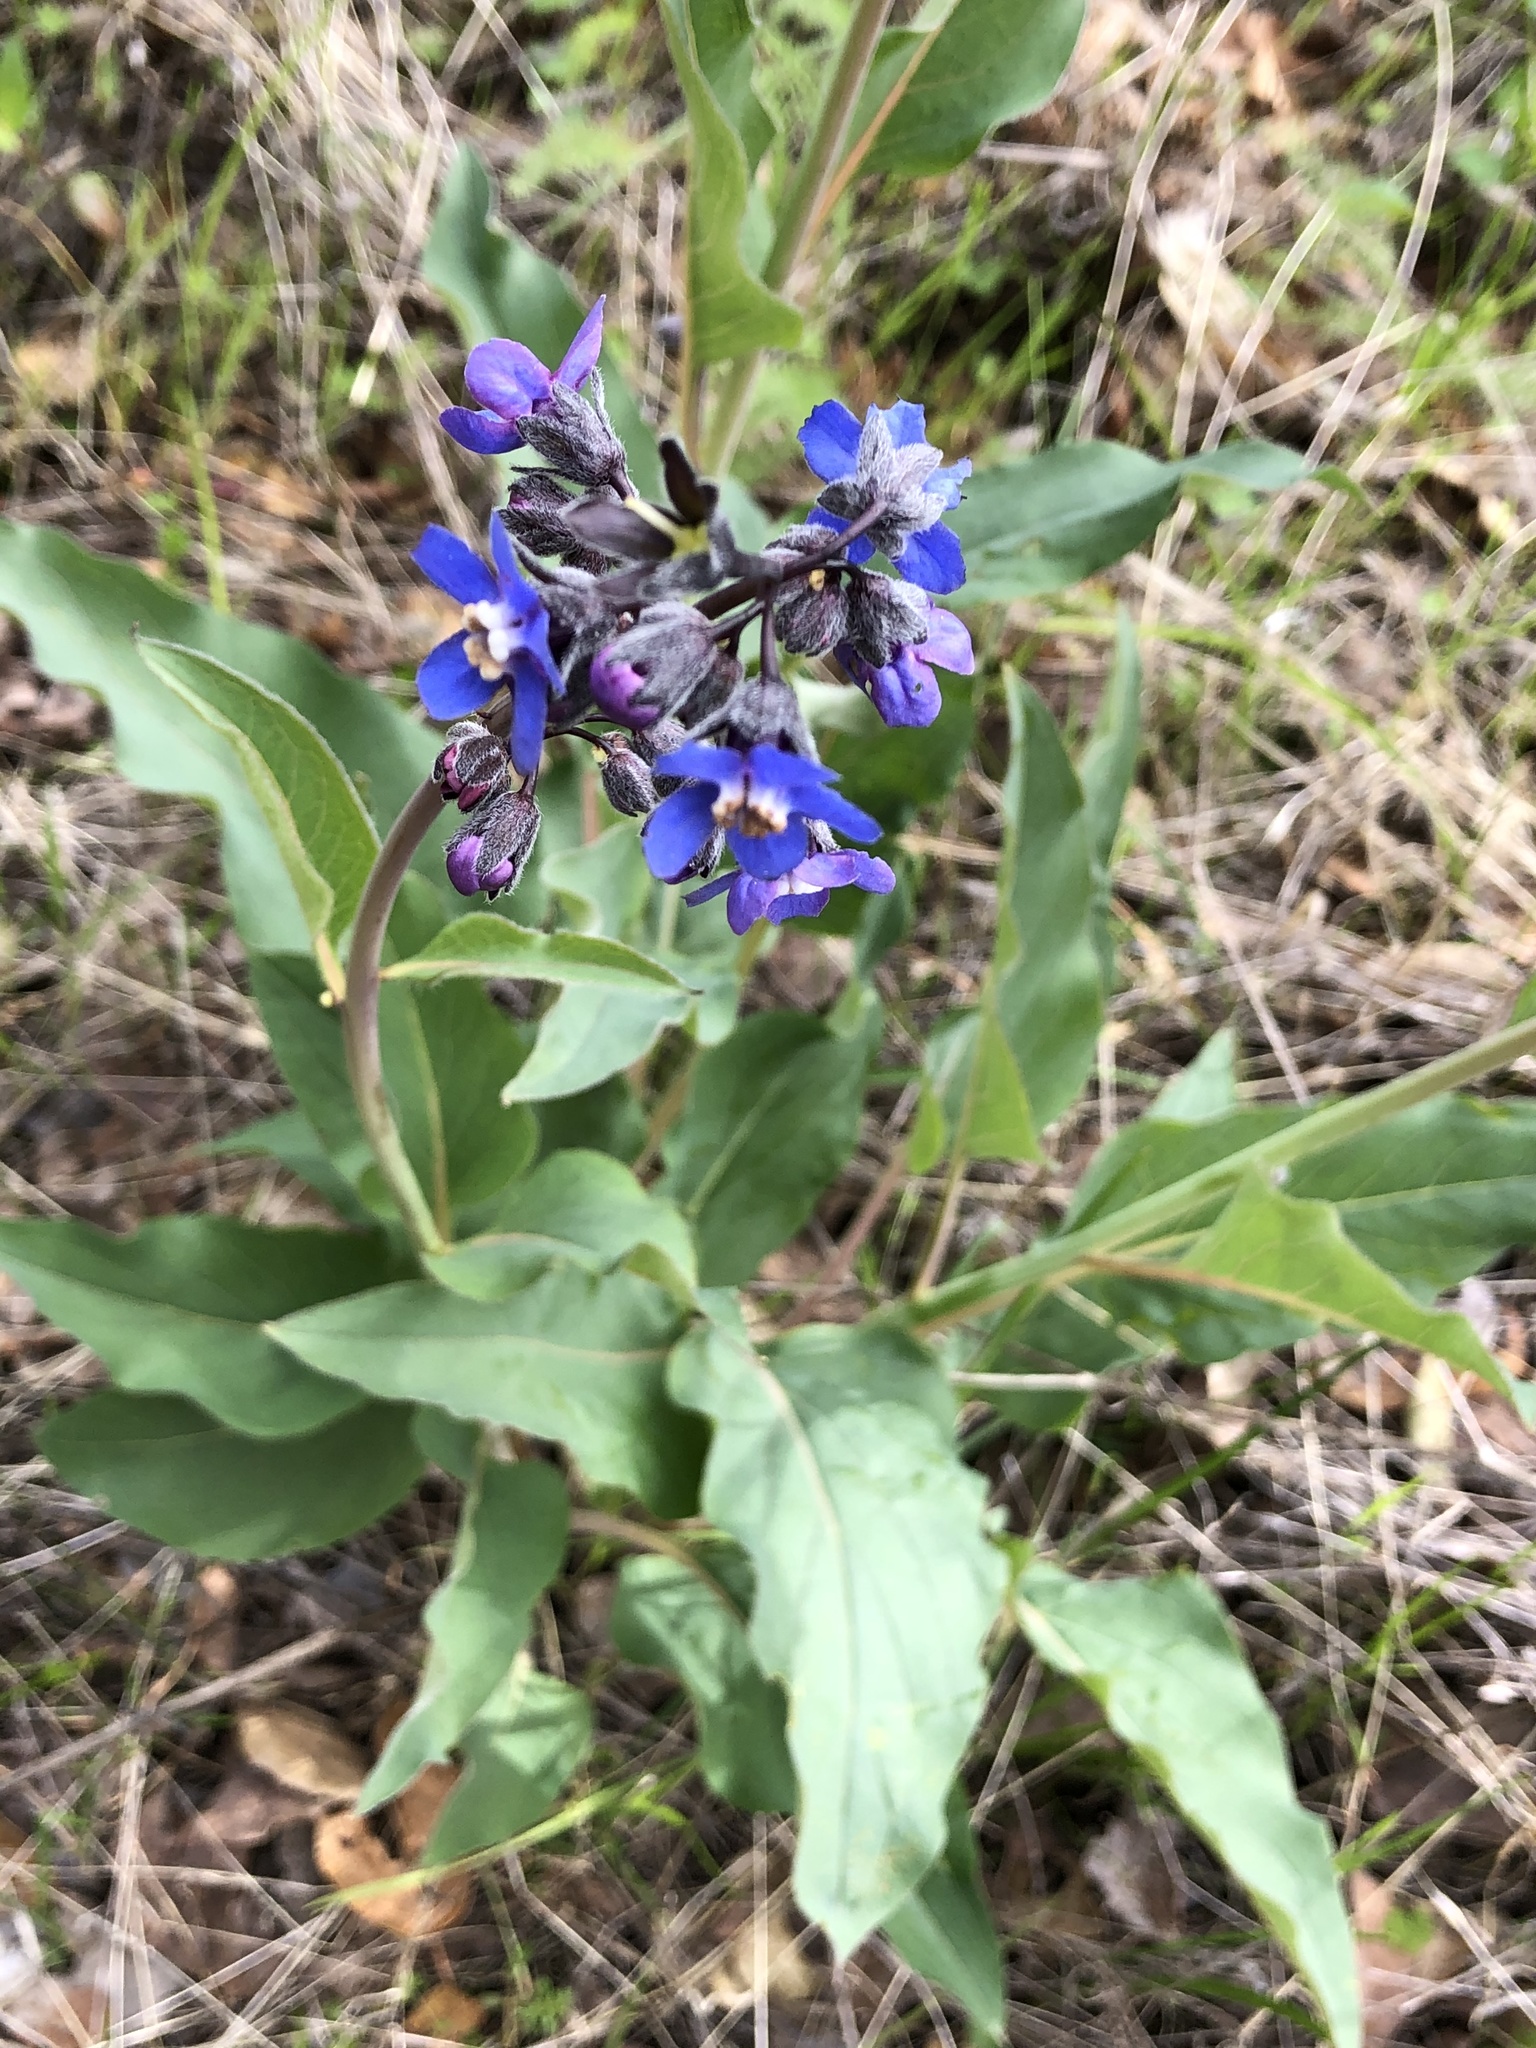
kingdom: Plantae
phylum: Tracheophyta
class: Magnoliopsida
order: Boraginales
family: Boraginaceae
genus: Adelinia
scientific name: Adelinia grande
